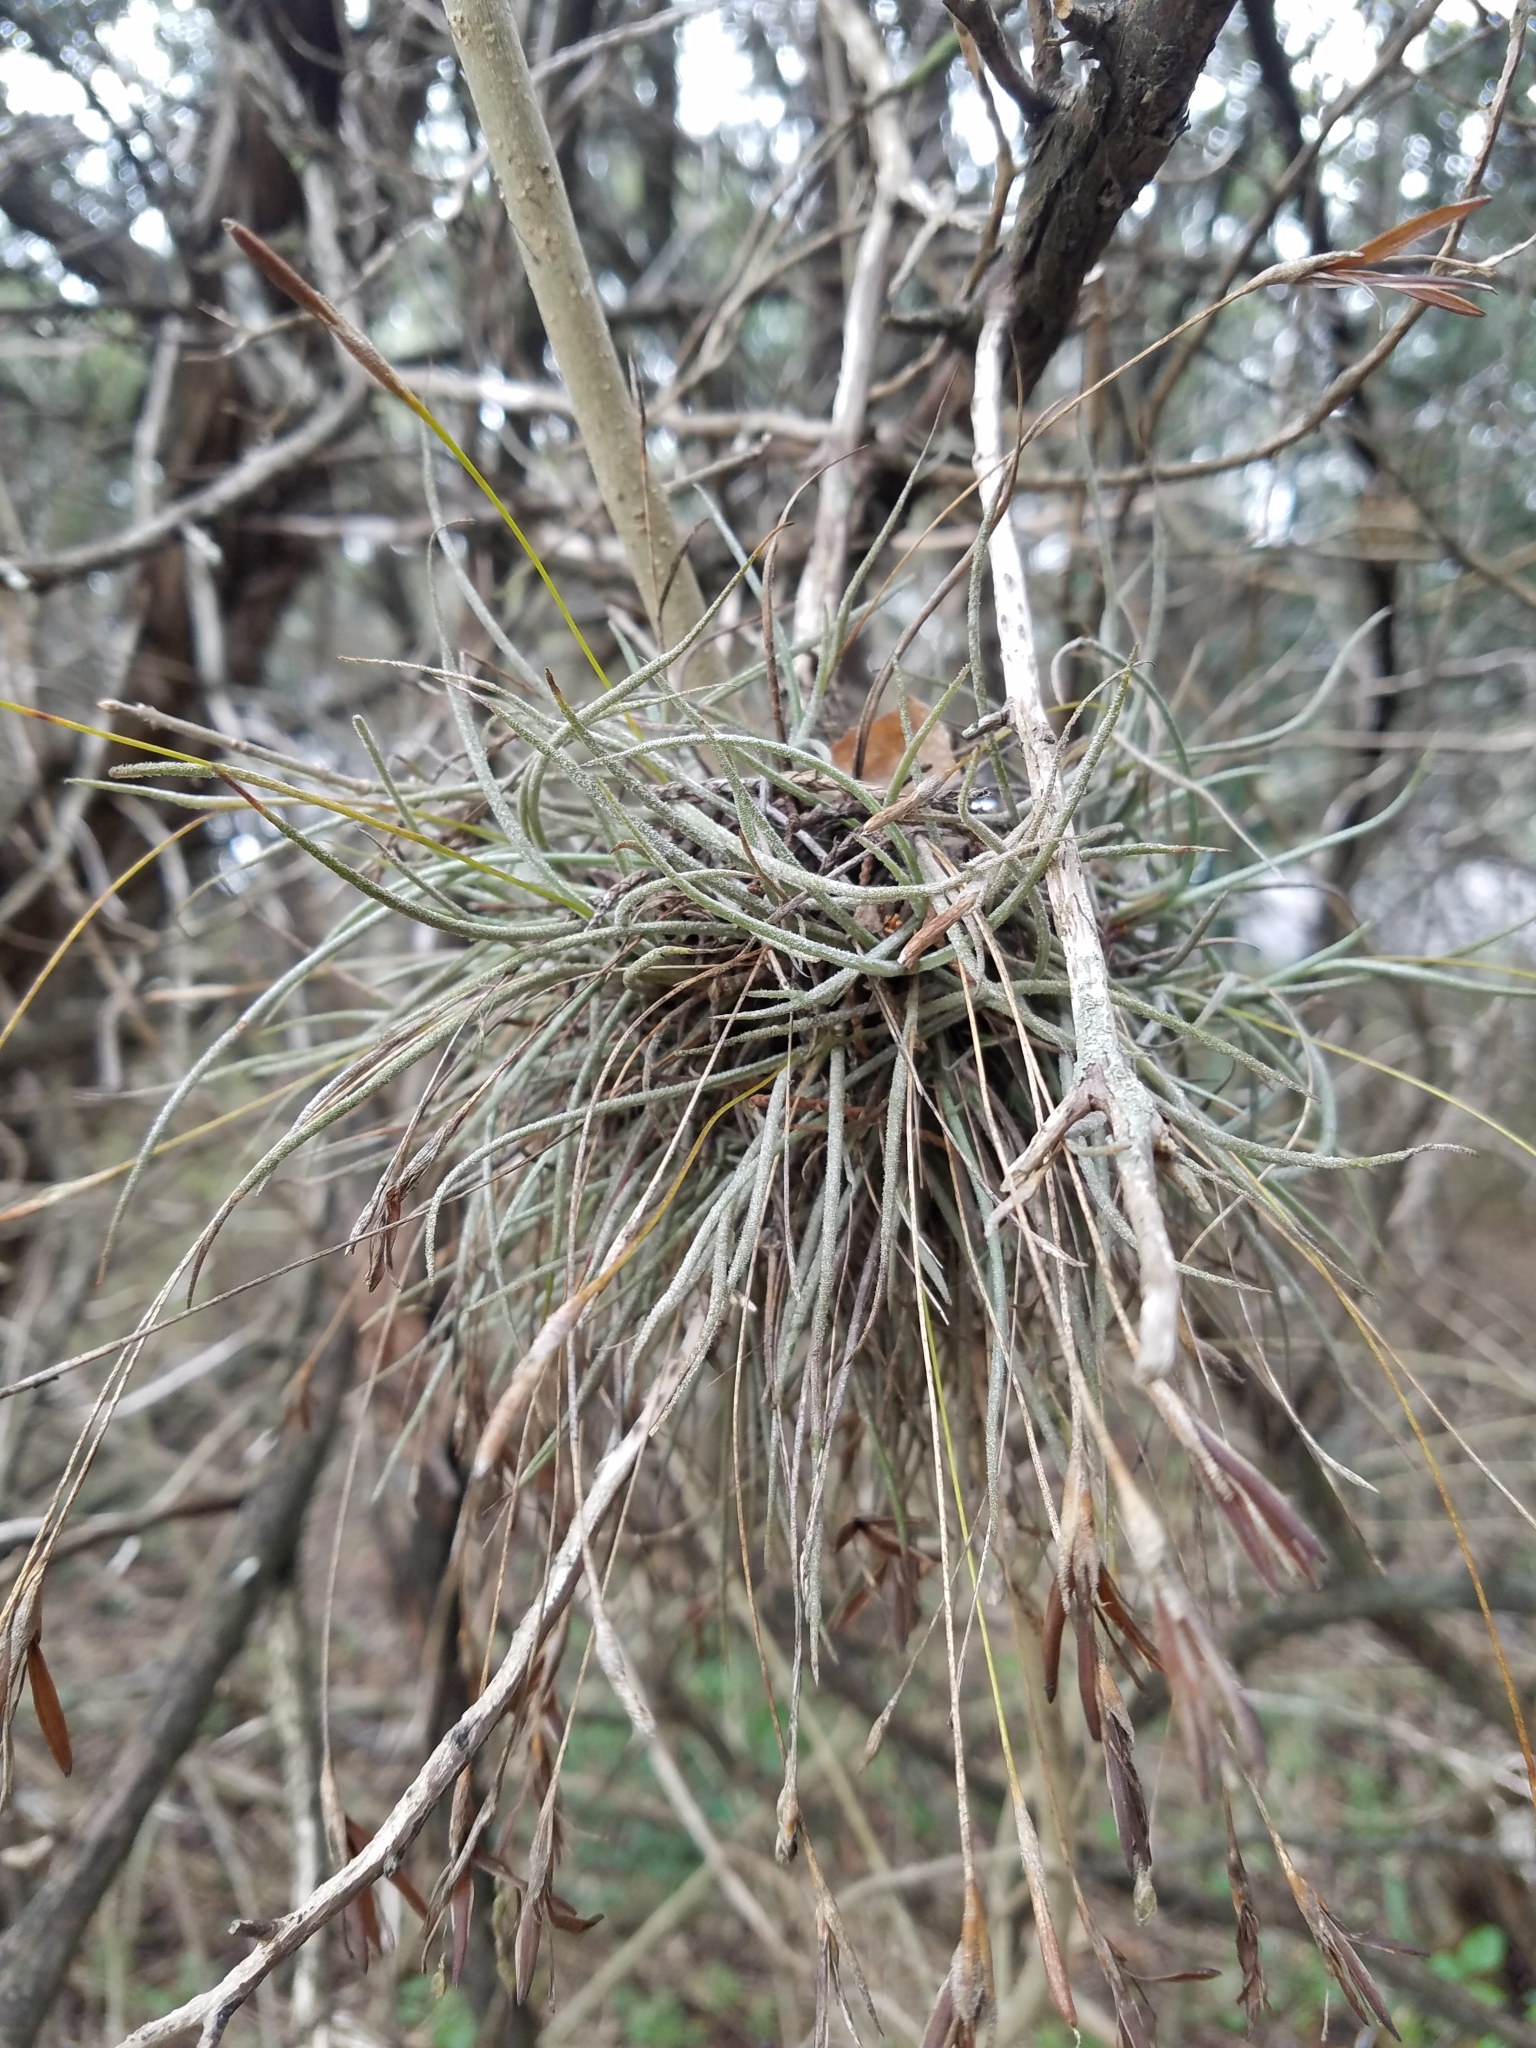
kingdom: Plantae
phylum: Tracheophyta
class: Liliopsida
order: Poales
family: Bromeliaceae
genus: Tillandsia
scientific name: Tillandsia recurvata
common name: Small ballmoss
